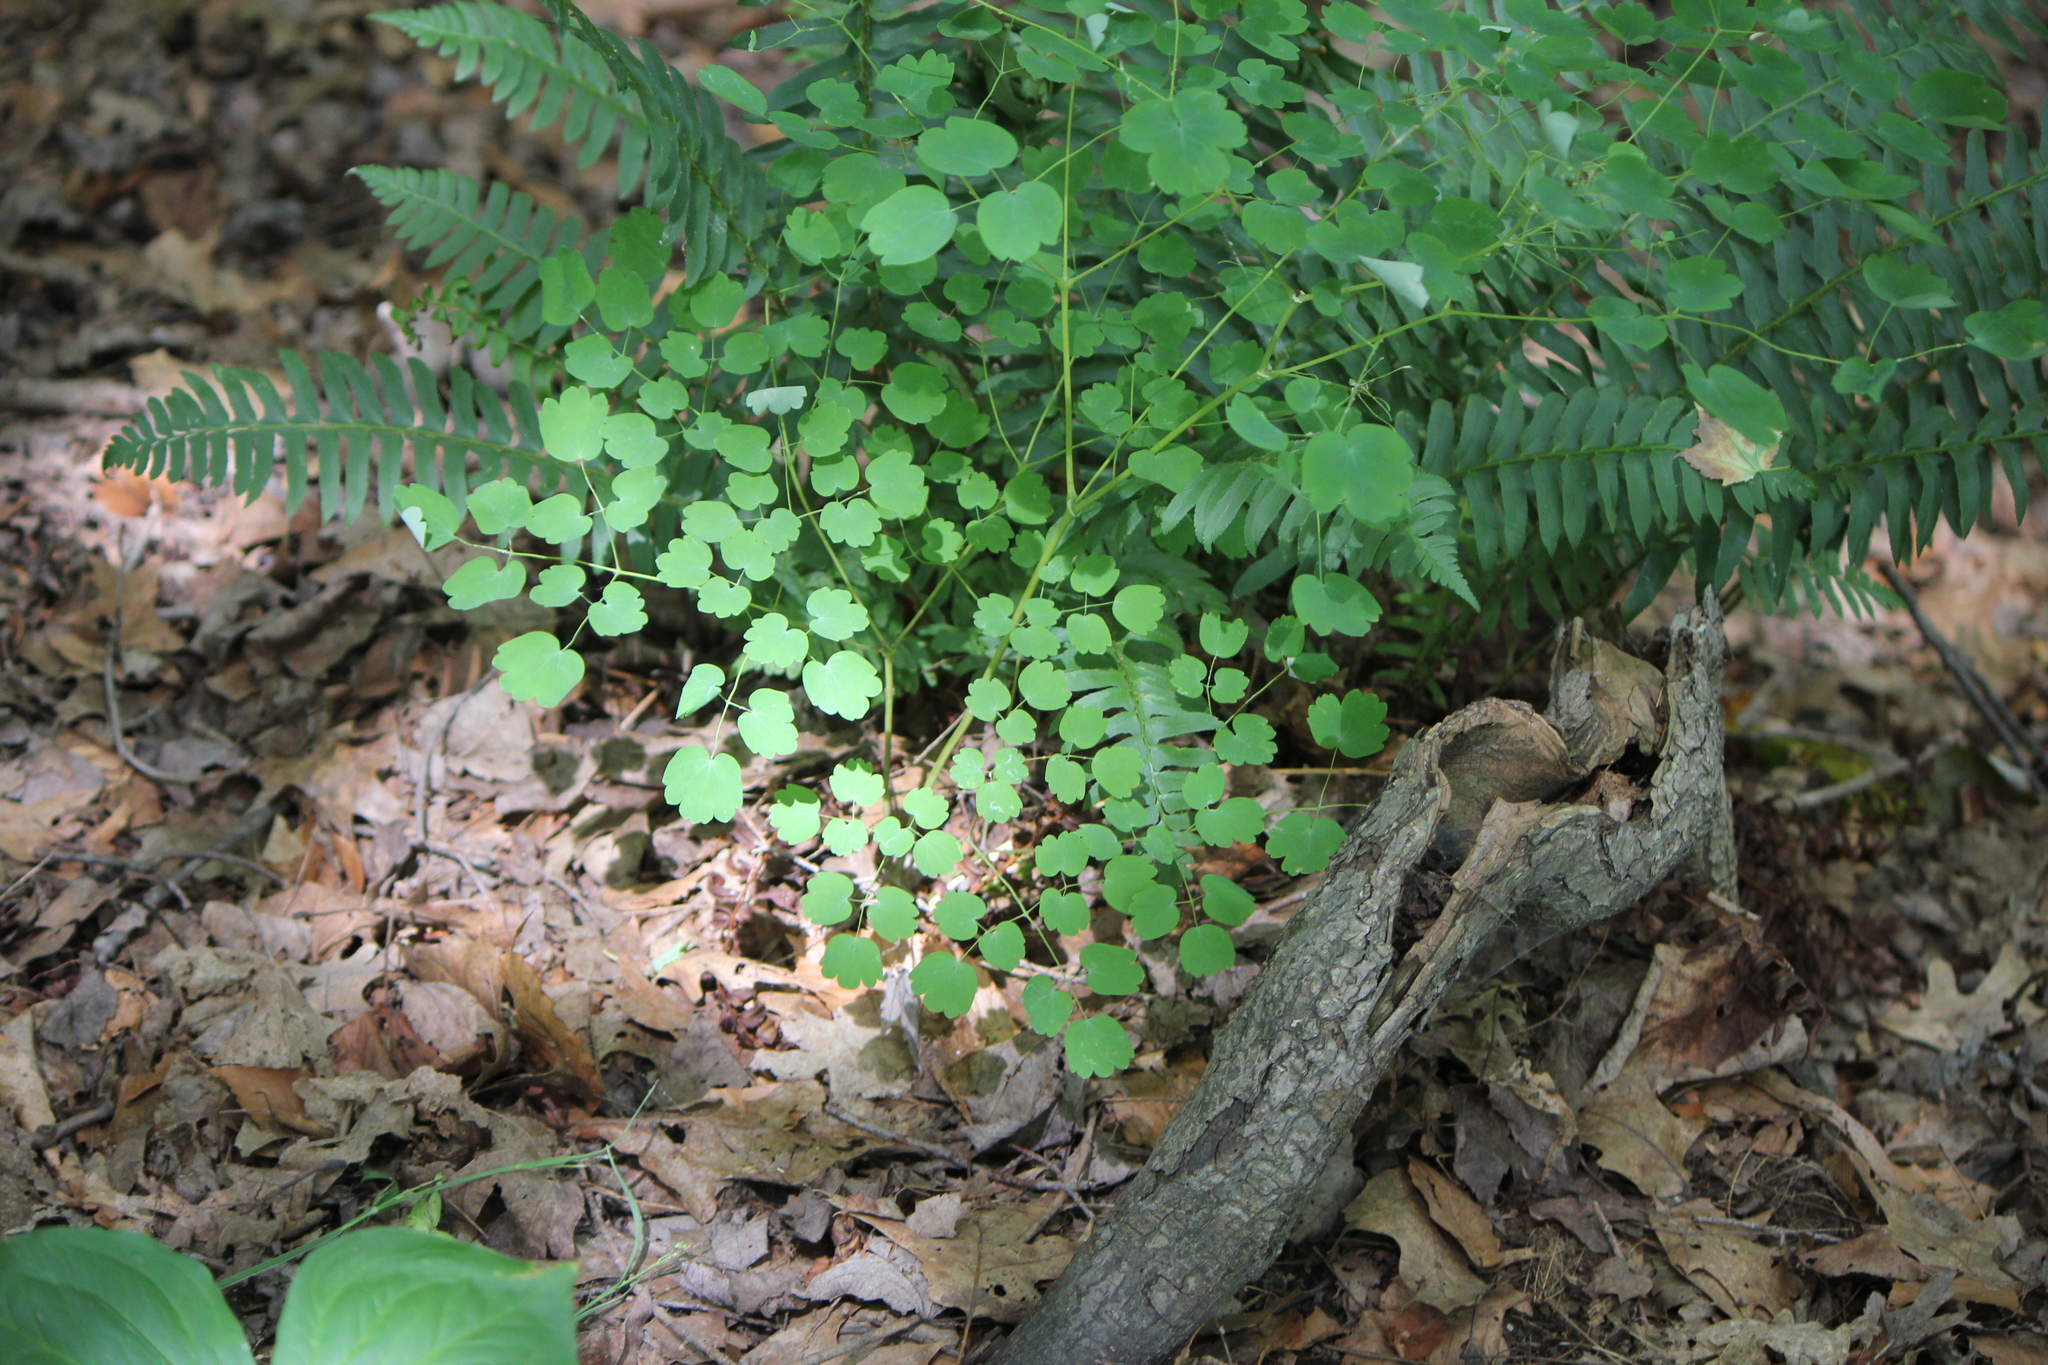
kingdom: Plantae
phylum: Tracheophyta
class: Magnoliopsida
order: Ranunculales
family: Ranunculaceae
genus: Thalictrum
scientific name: Thalictrum dioicum
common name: Early meadow-rue
